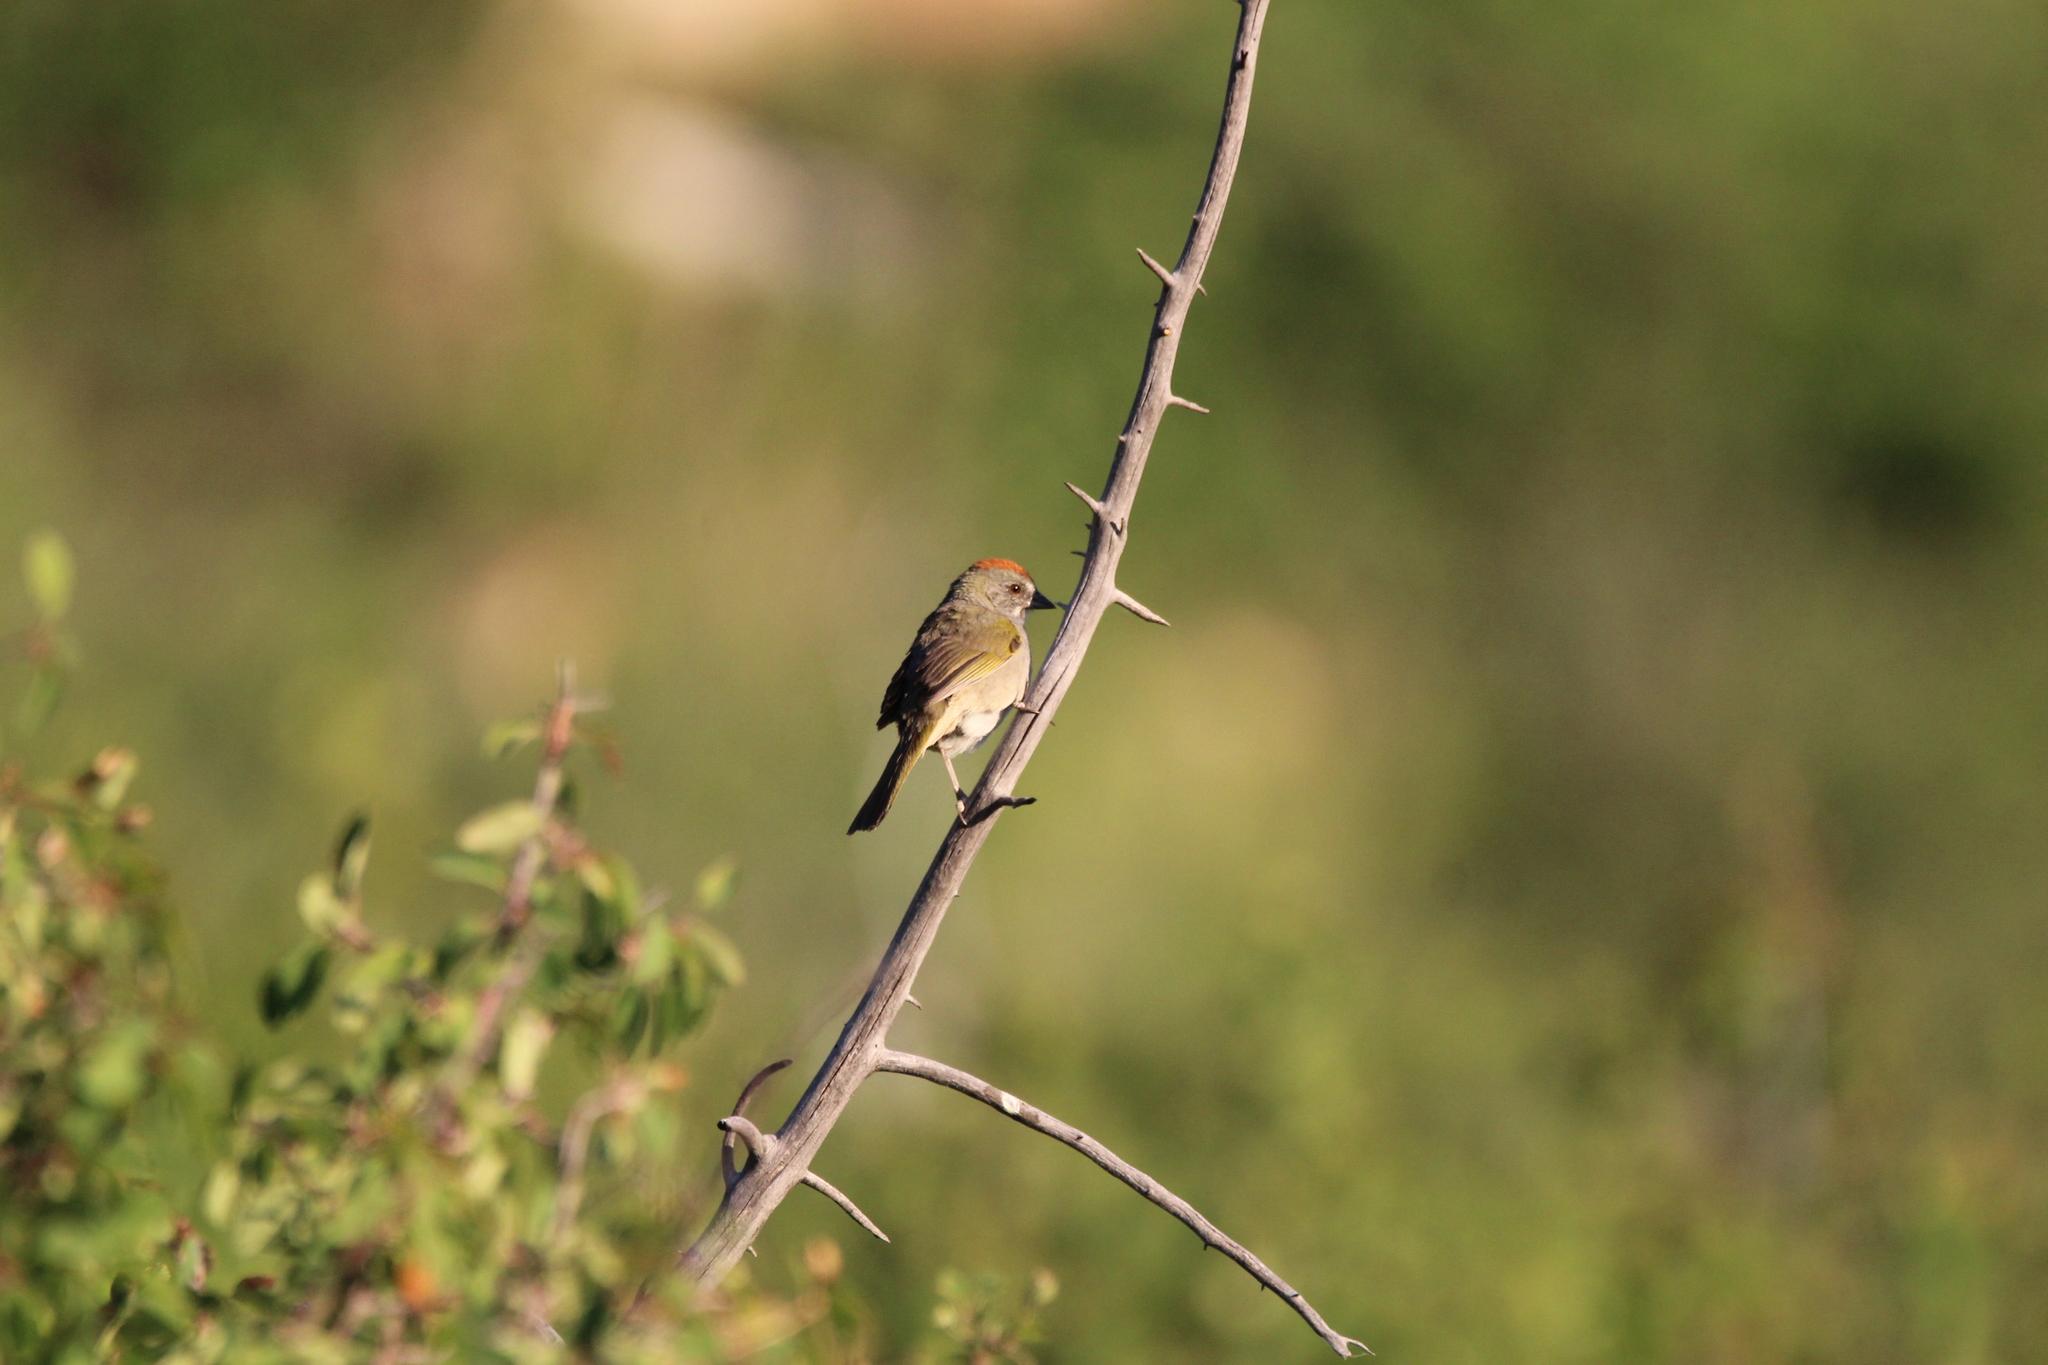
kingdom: Animalia
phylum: Chordata
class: Aves
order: Passeriformes
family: Passerellidae
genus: Pipilo
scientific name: Pipilo chlorurus
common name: Green-tailed towhee
